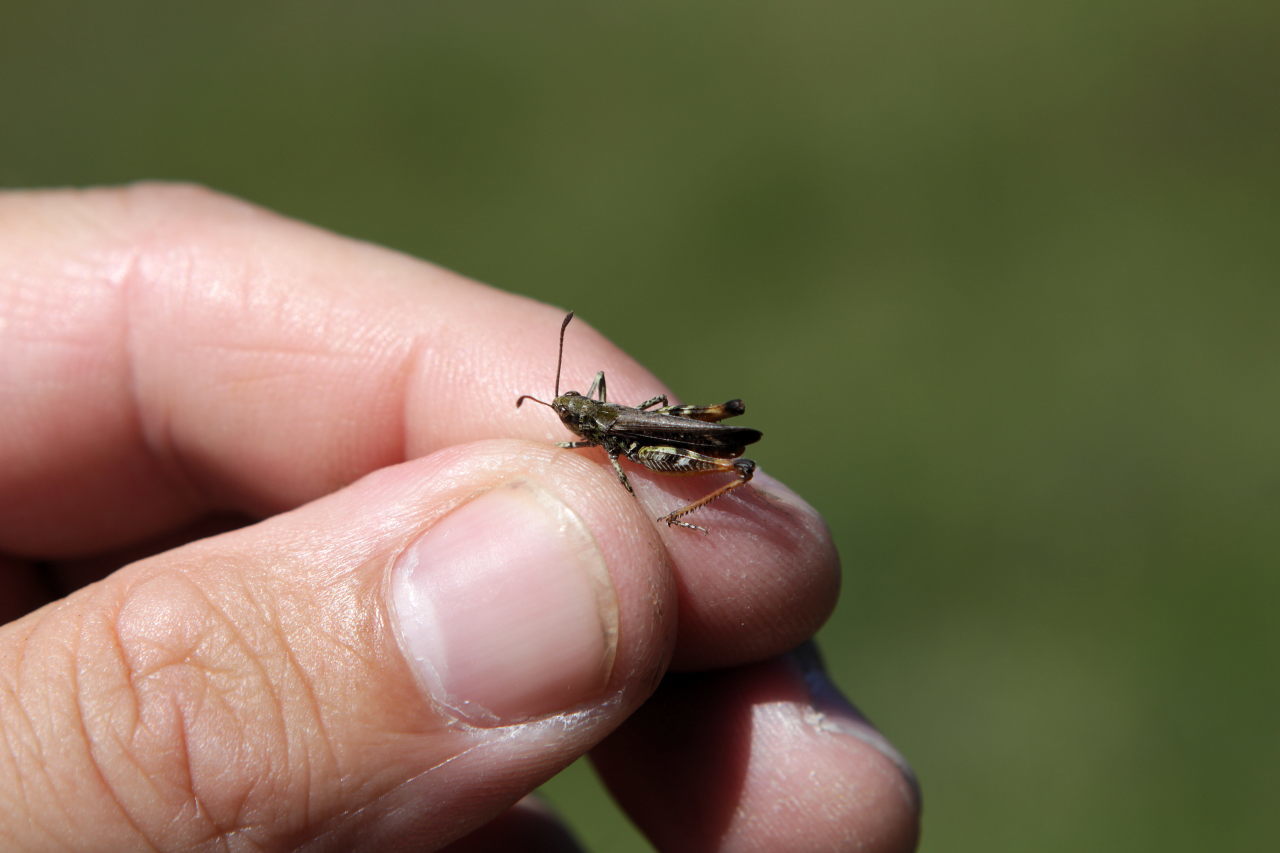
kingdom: Animalia
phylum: Arthropoda
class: Insecta
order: Orthoptera
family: Acrididae
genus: Myrmeleotettix
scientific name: Myrmeleotettix maculatus
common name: Mottled grasshopper
